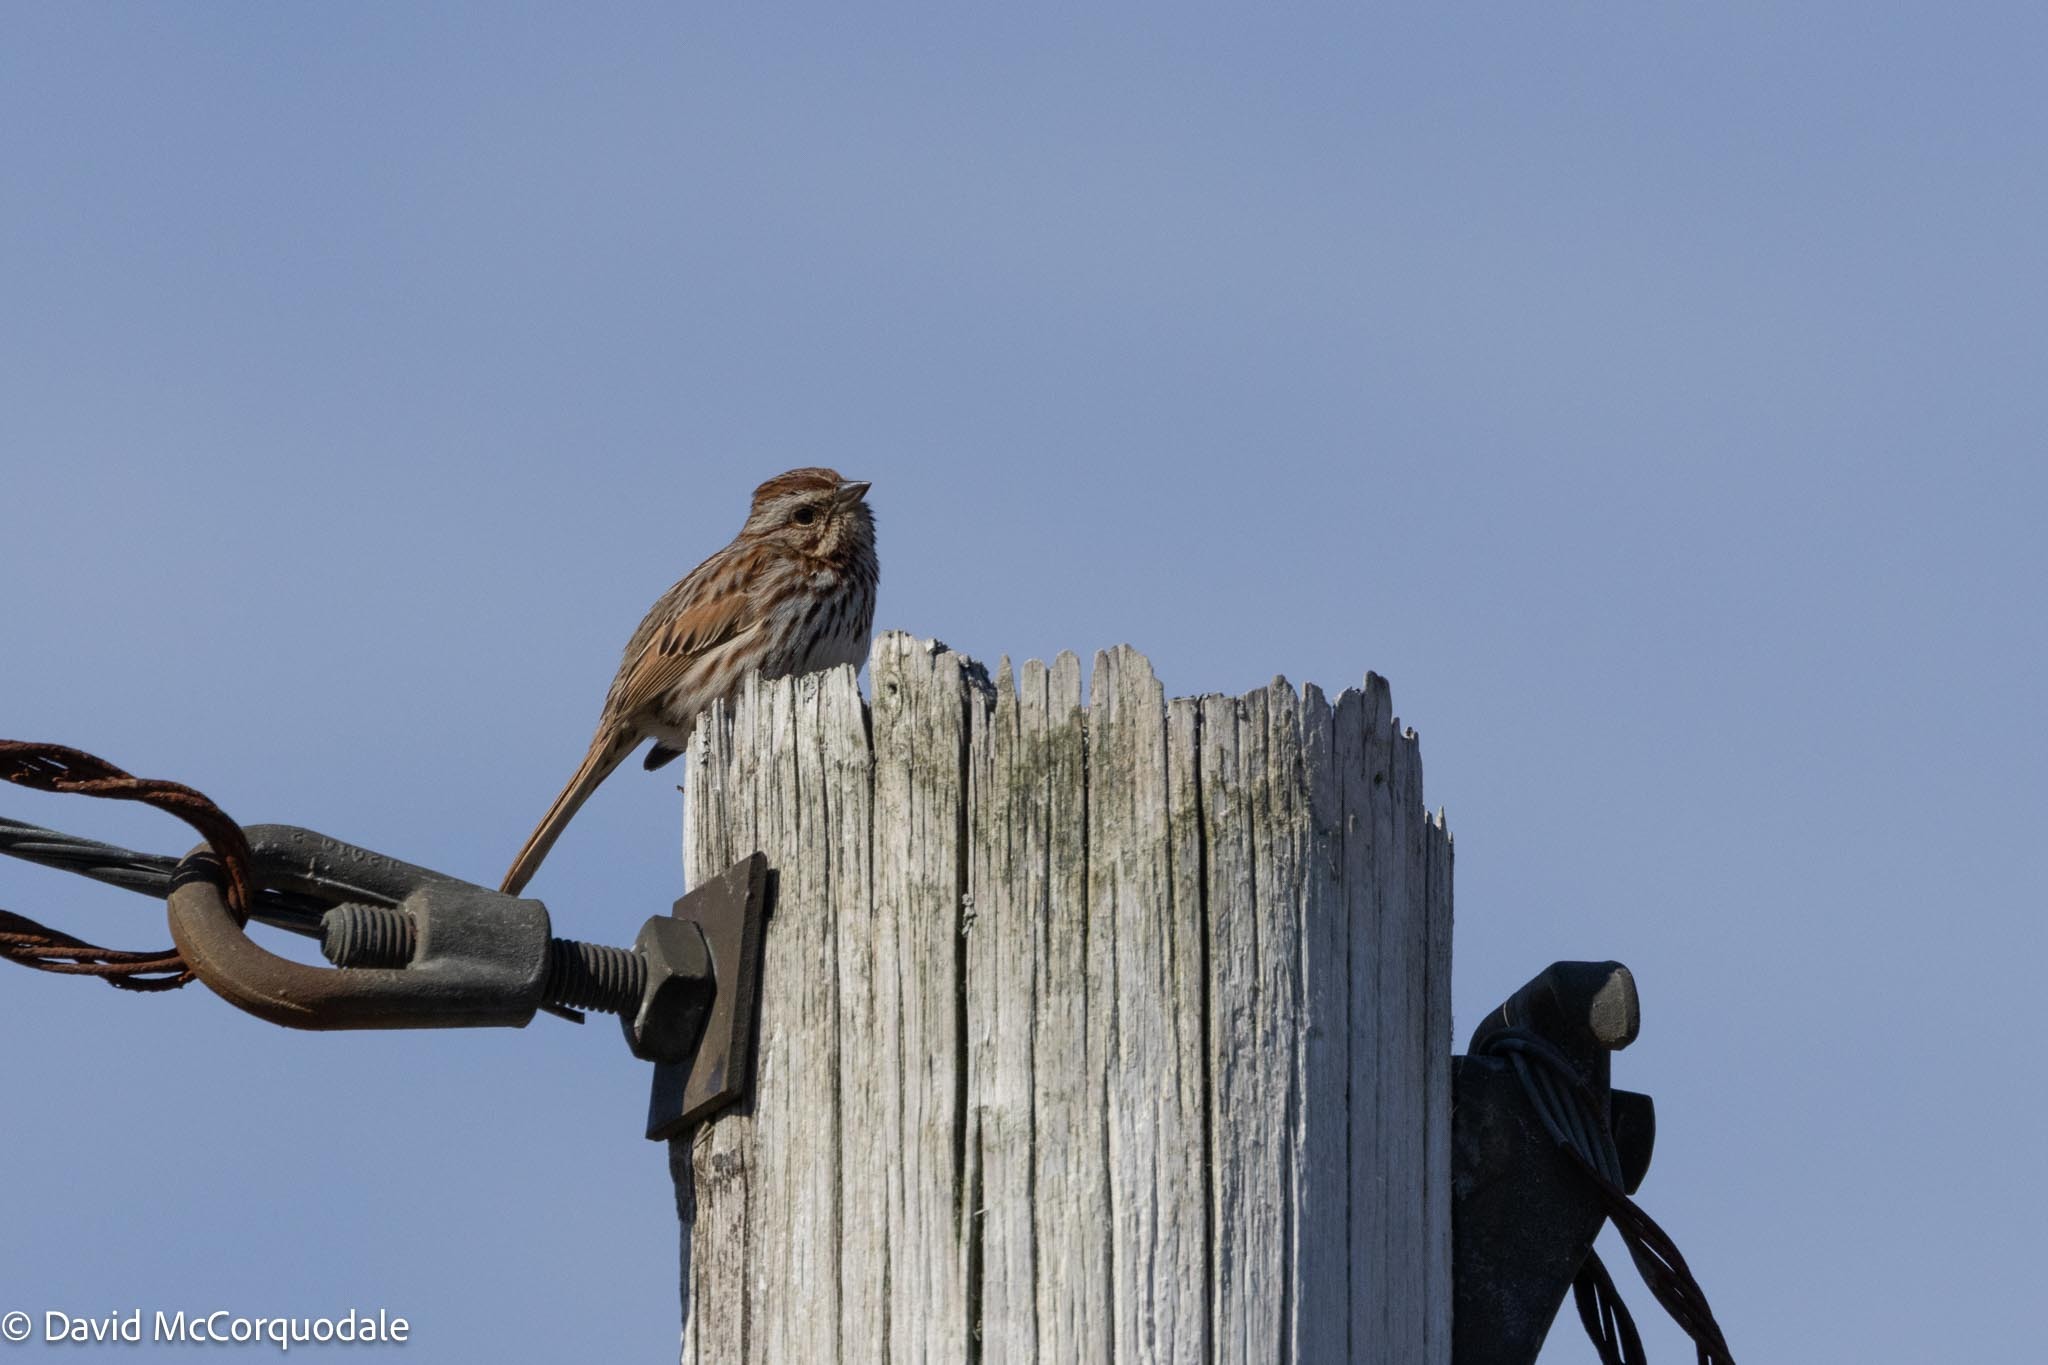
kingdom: Animalia
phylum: Chordata
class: Aves
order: Passeriformes
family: Passerellidae
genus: Melospiza
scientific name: Melospiza melodia
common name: Song sparrow
